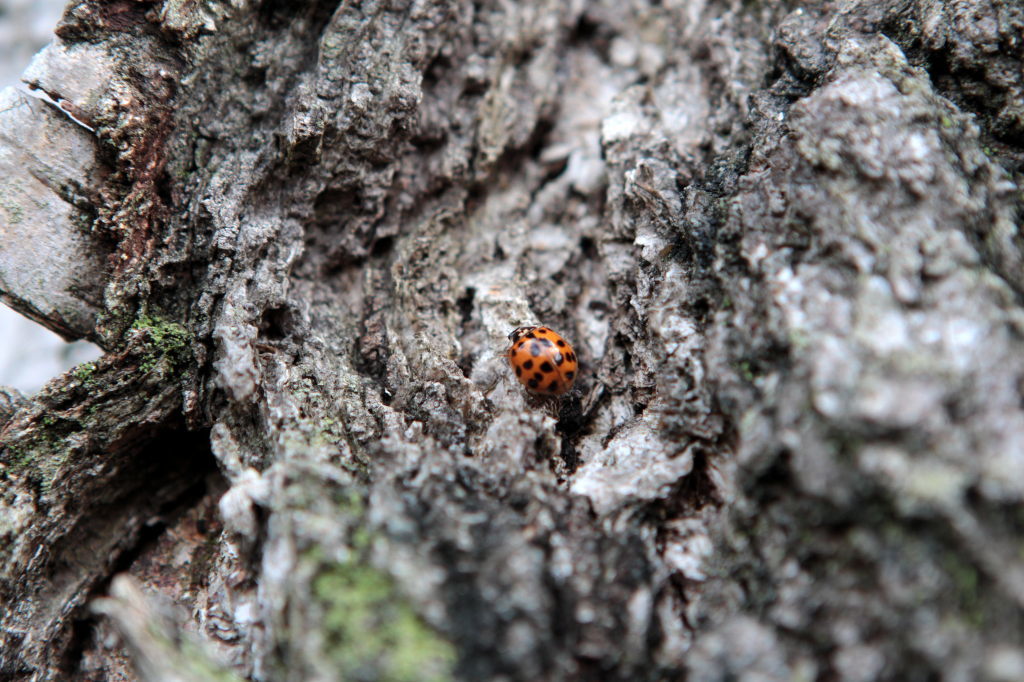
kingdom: Animalia
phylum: Arthropoda
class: Insecta
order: Coleoptera
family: Coccinellidae
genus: Harmonia
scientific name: Harmonia axyridis
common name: Harlequin ladybird
